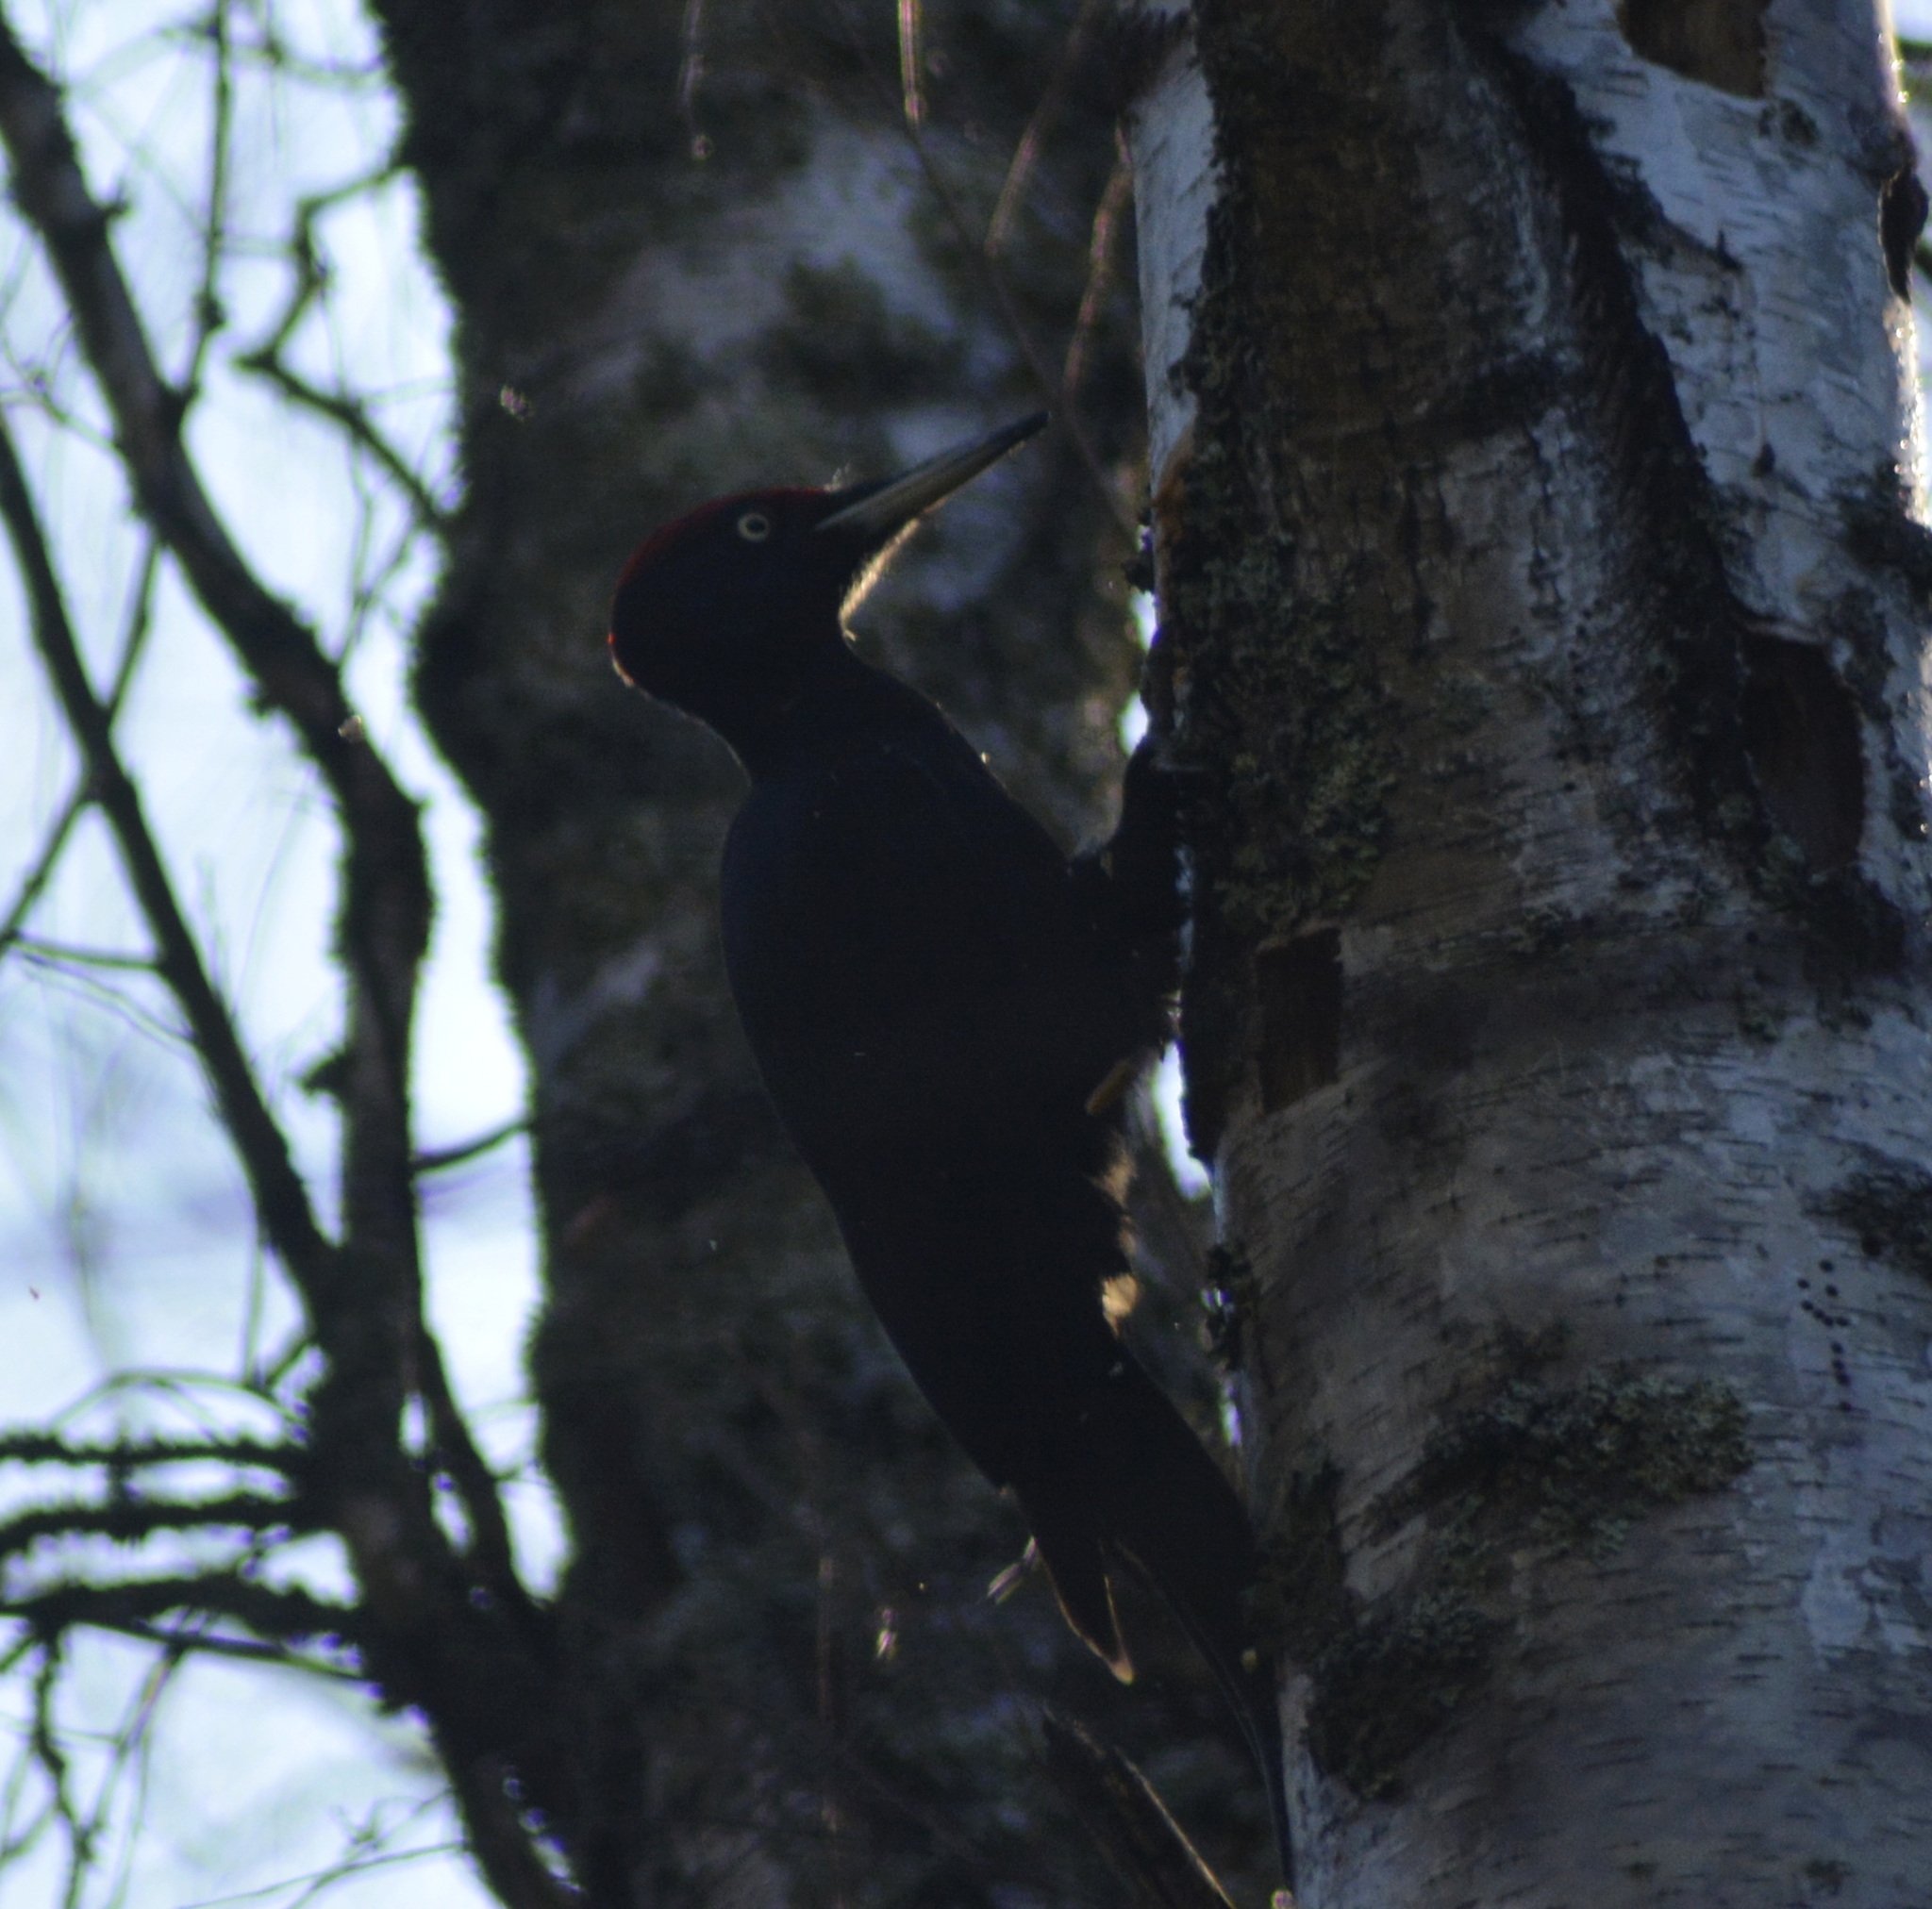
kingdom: Animalia
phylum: Chordata
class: Aves
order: Piciformes
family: Picidae
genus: Dryocopus
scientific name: Dryocopus martius
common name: Black woodpecker
